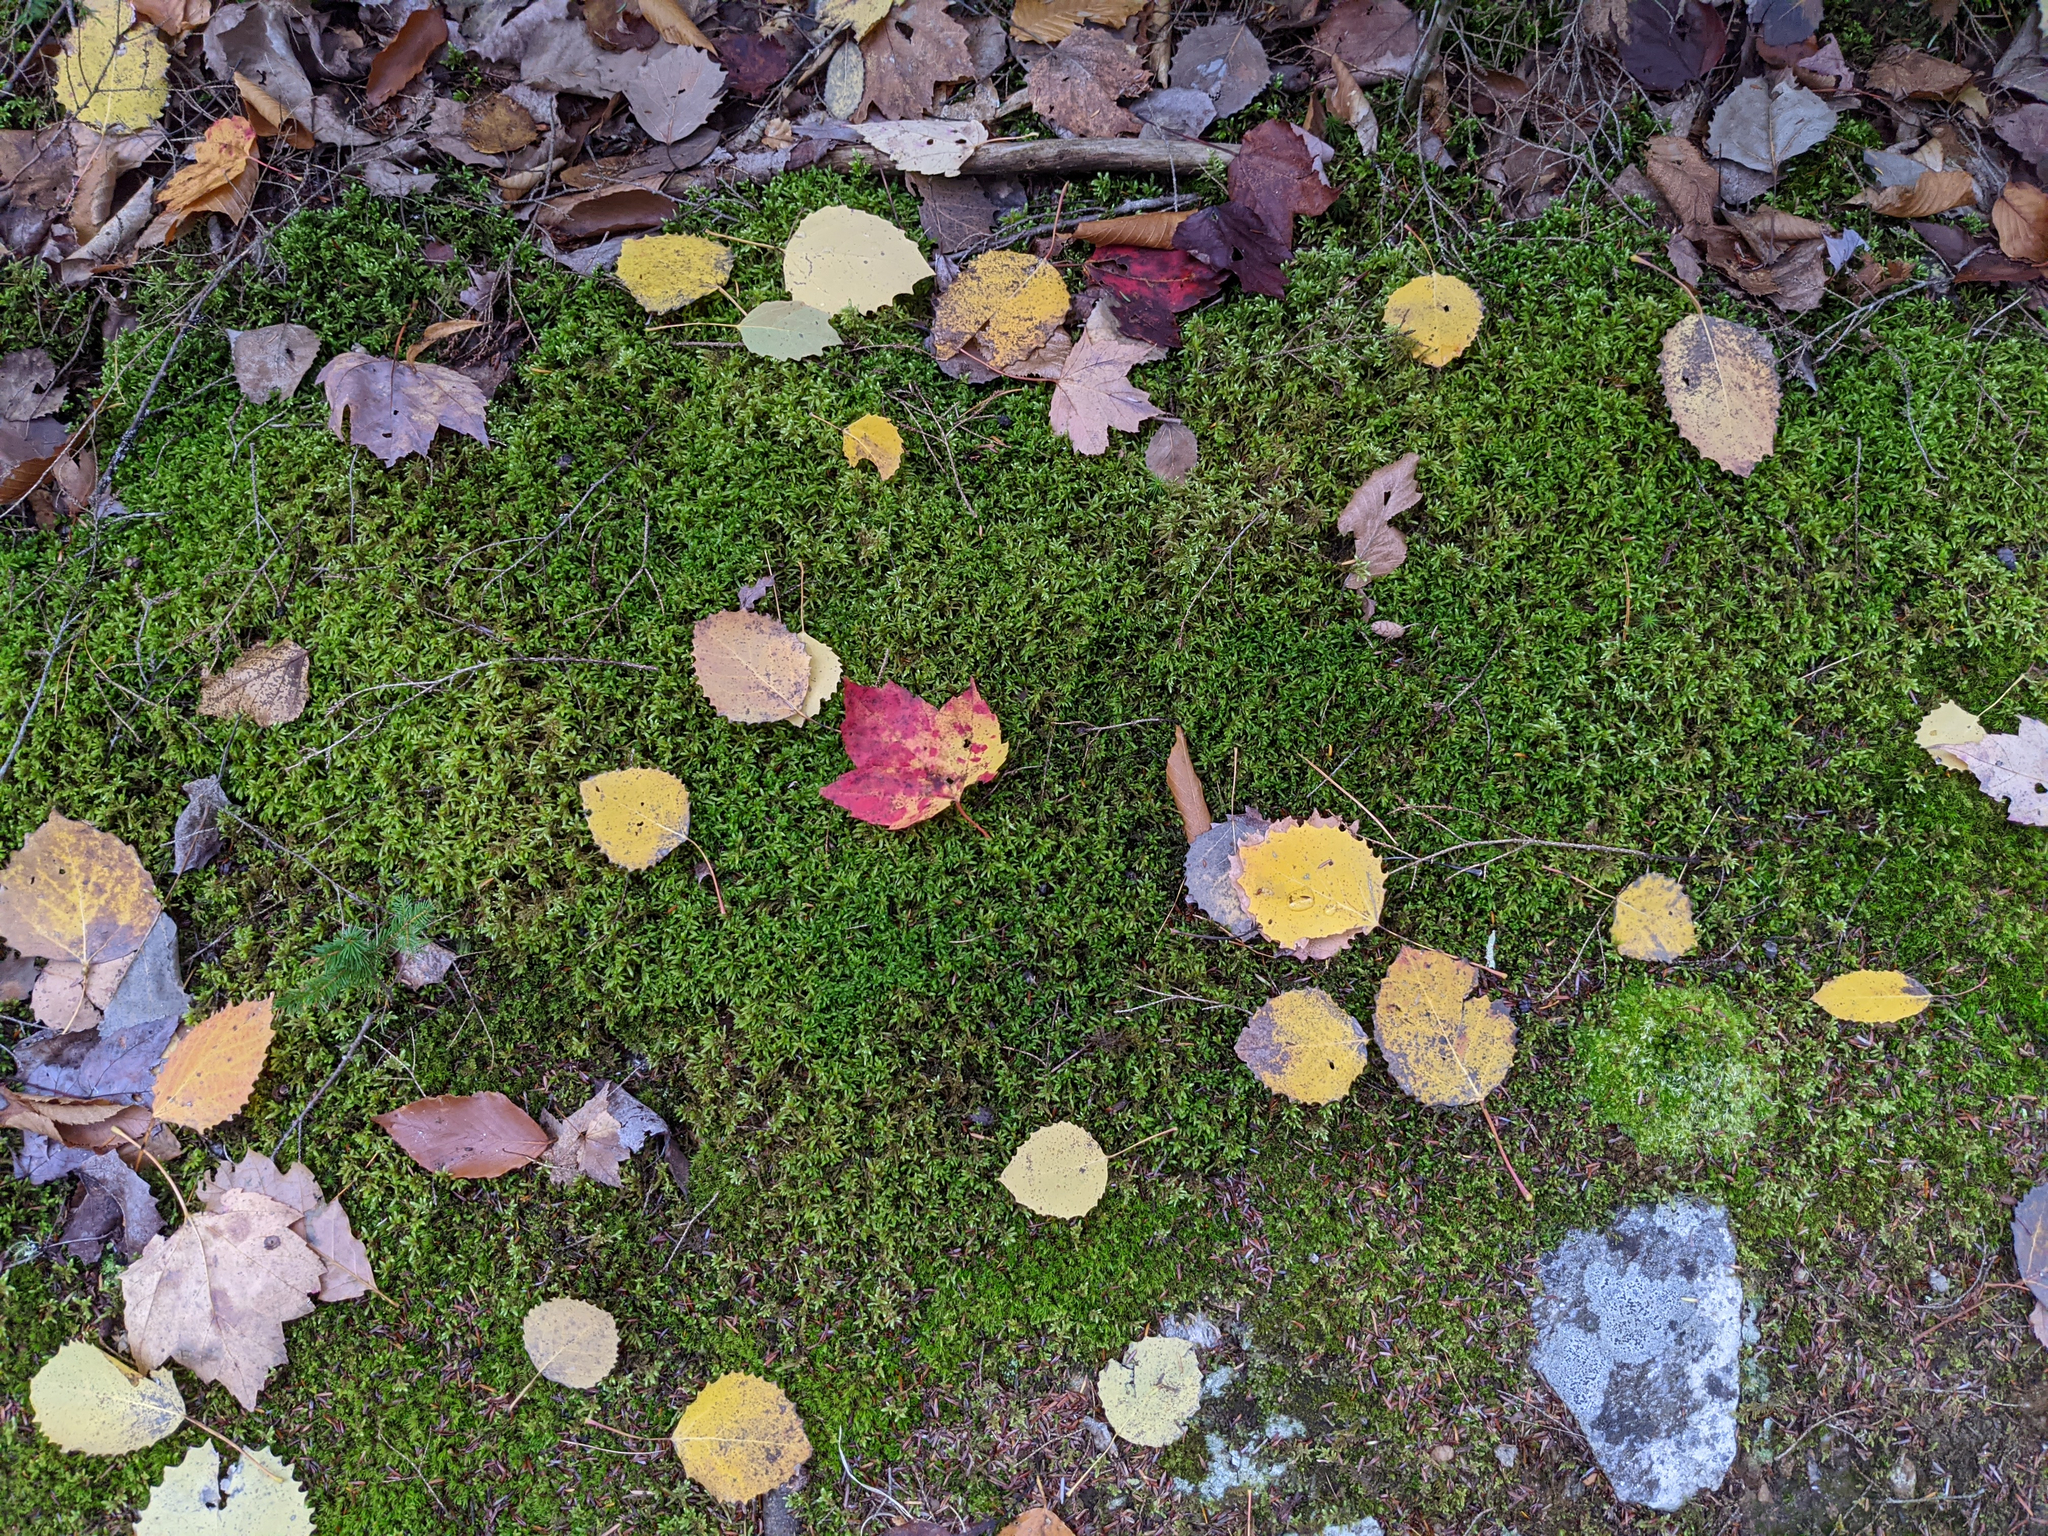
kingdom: Plantae
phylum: Tracheophyta
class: Magnoliopsida
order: Malpighiales
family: Salicaceae
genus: Populus
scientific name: Populus grandidentata
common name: Bigtooth aspen
